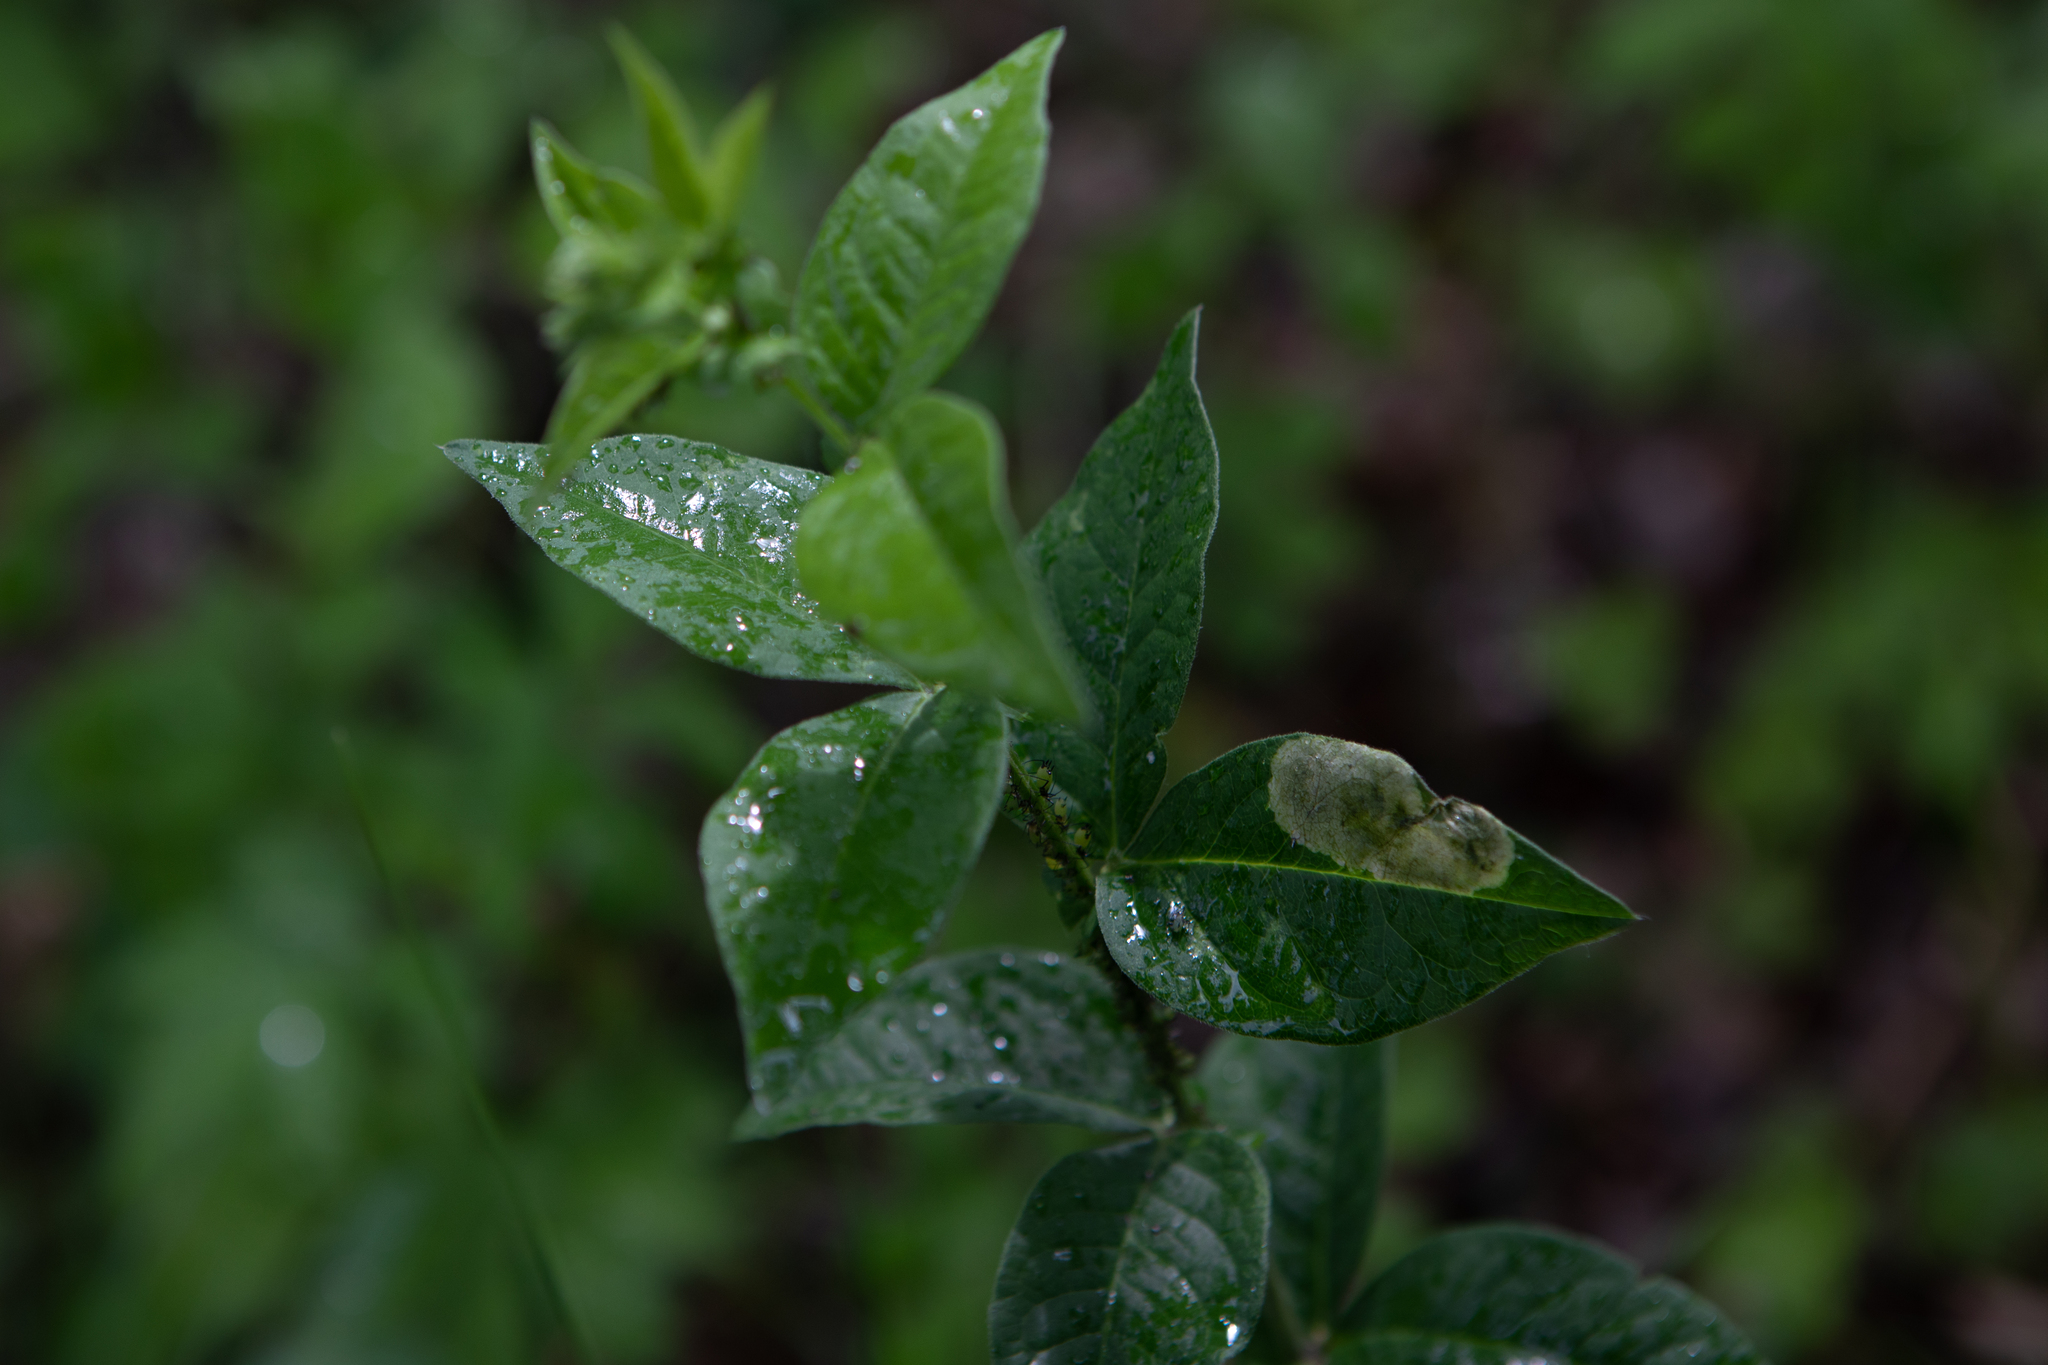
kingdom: Plantae
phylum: Tracheophyta
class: Magnoliopsida
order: Fabales
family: Fabaceae
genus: Vicia
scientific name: Vicia unijuga
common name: Two-leaf vetch
